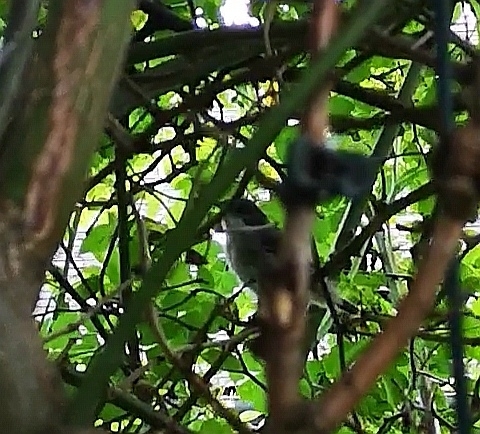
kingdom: Animalia
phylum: Chordata
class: Aves
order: Passeriformes
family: Sylviidae
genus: Sylvia
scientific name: Sylvia curruca
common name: Lesser whitethroat
